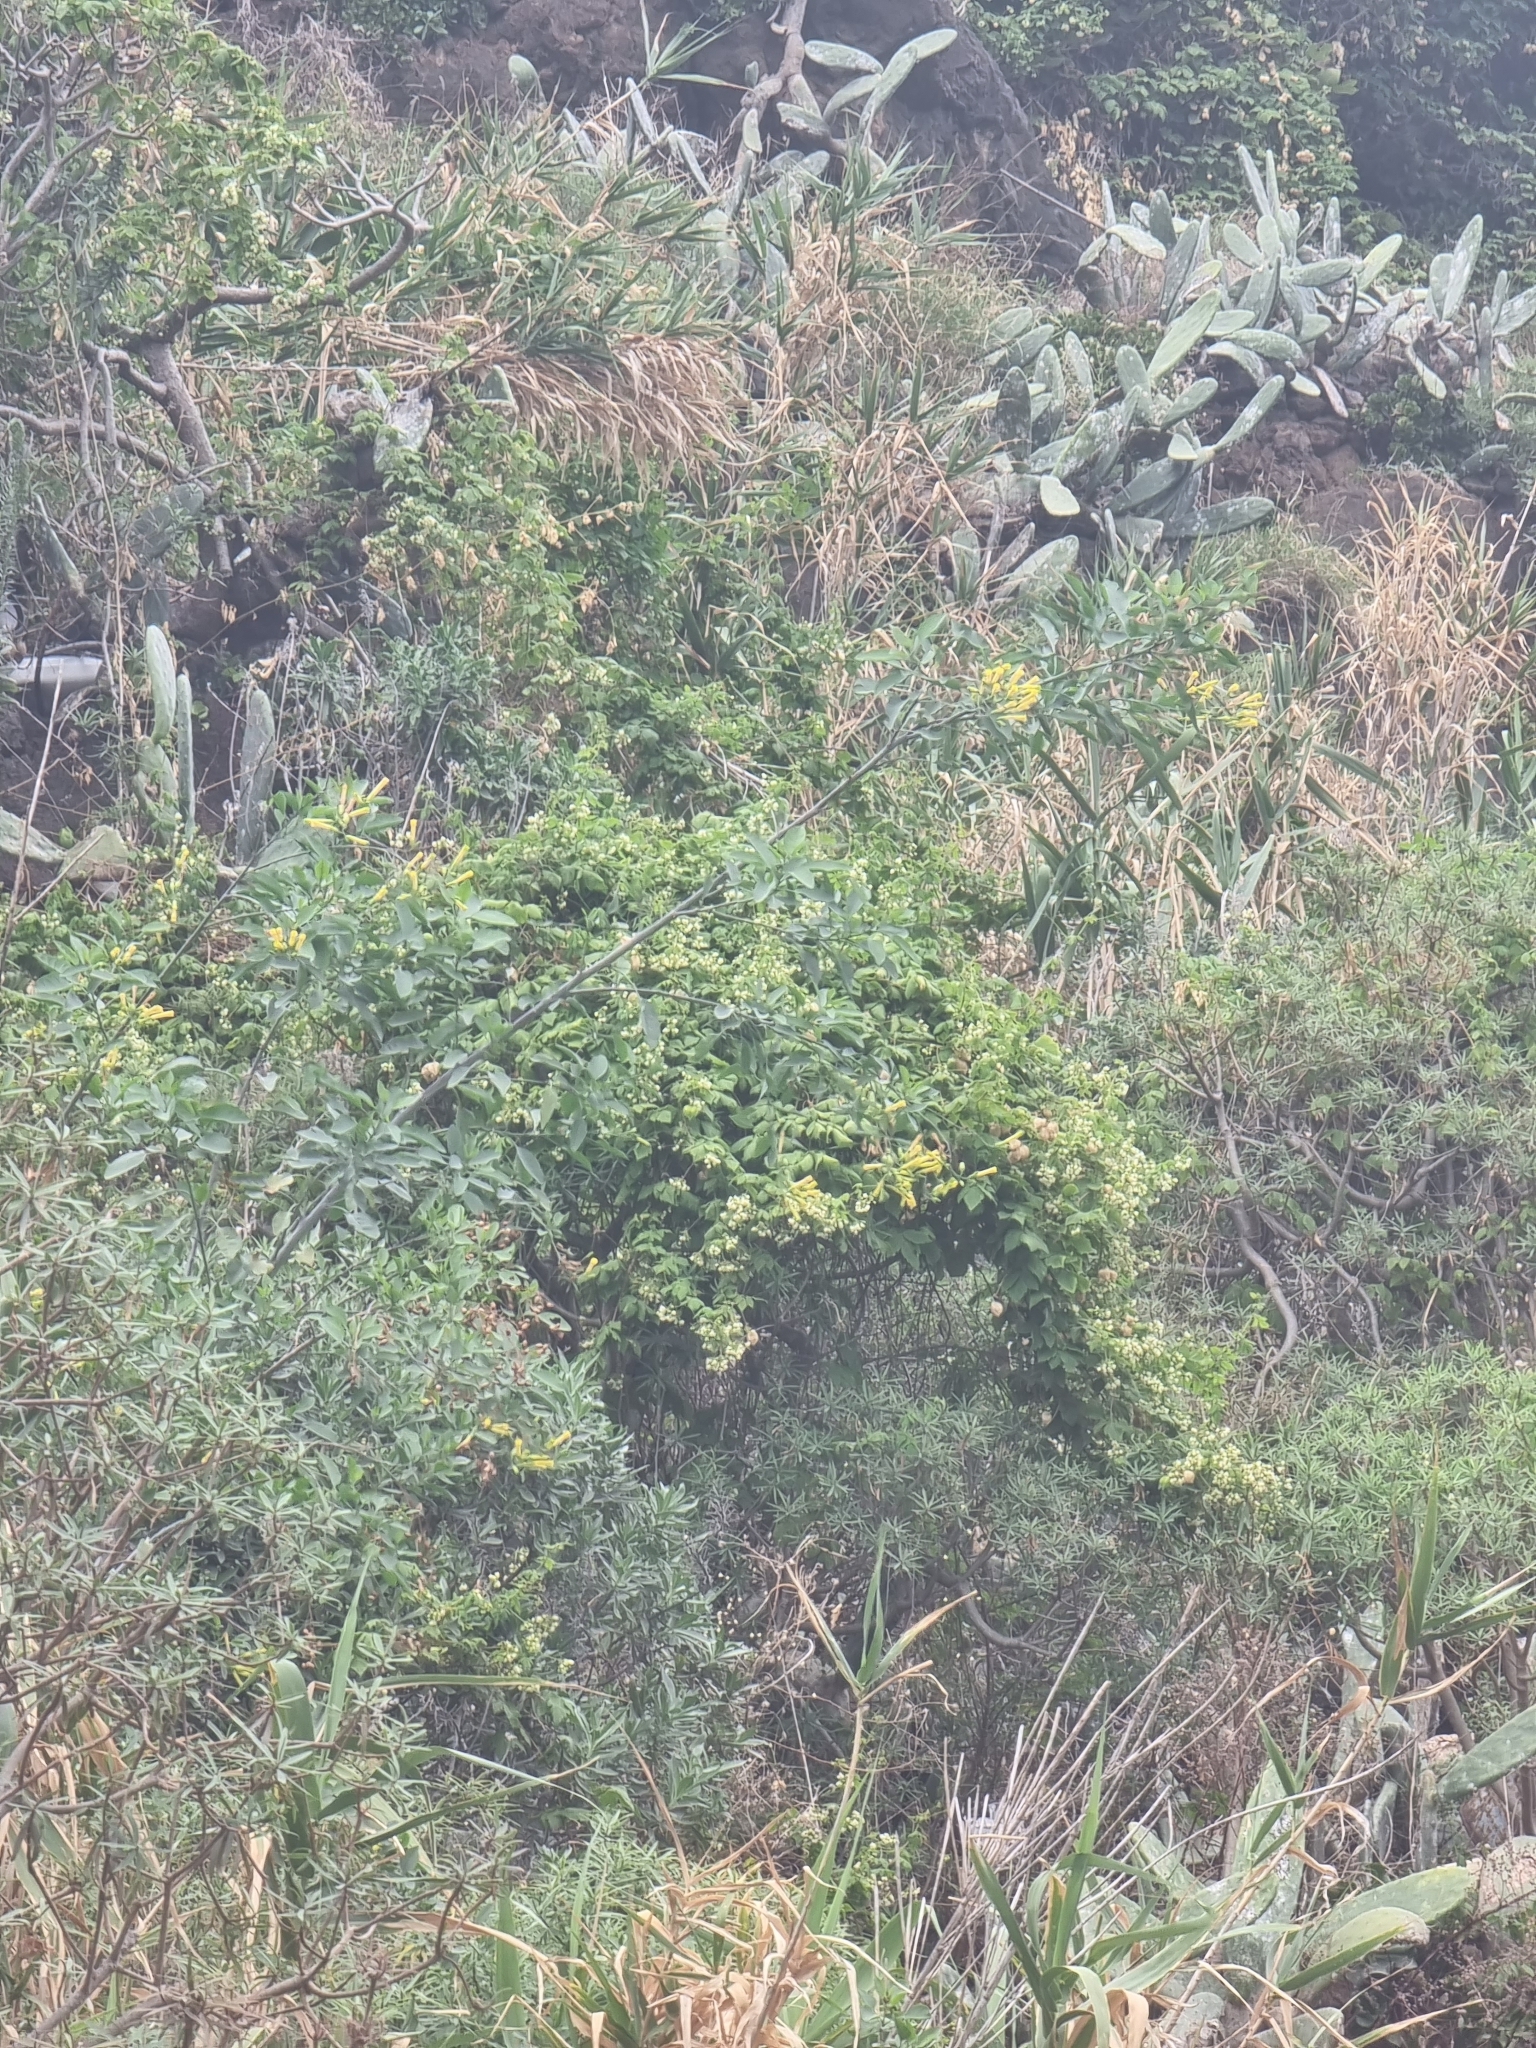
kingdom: Plantae
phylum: Tracheophyta
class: Magnoliopsida
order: Solanales
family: Solanaceae
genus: Nicotiana
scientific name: Nicotiana glauca
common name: Tree tobacco
